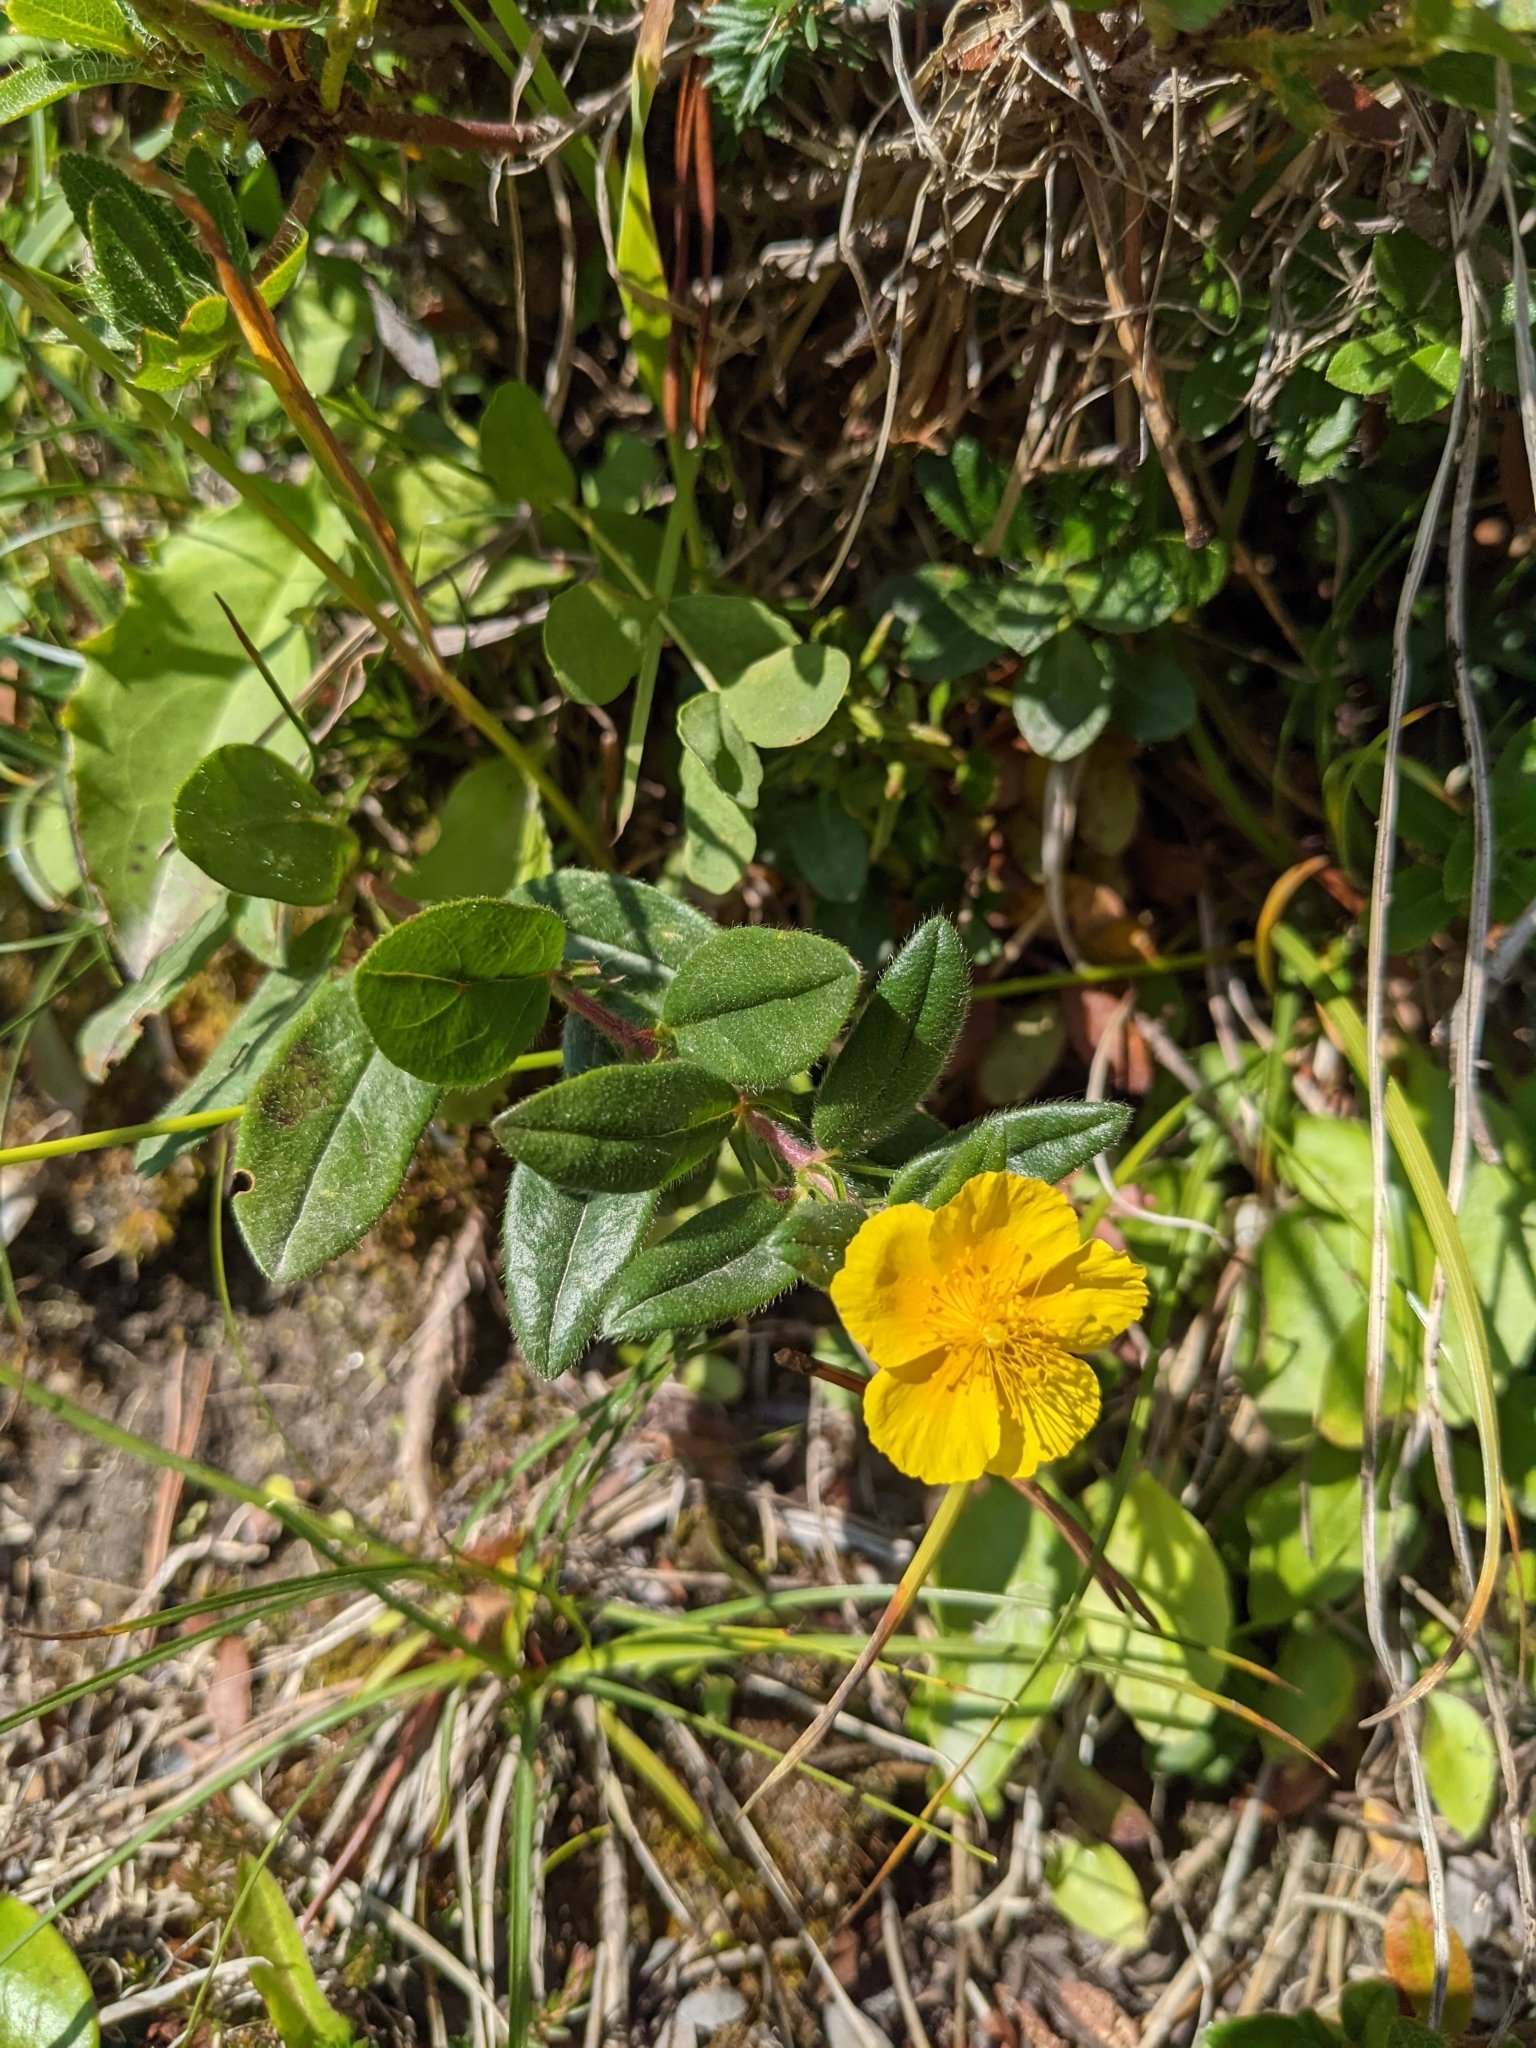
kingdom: Plantae
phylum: Tracheophyta
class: Magnoliopsida
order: Malvales
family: Cistaceae
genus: Helianthemum
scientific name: Helianthemum nummularium
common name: Common rock-rose
